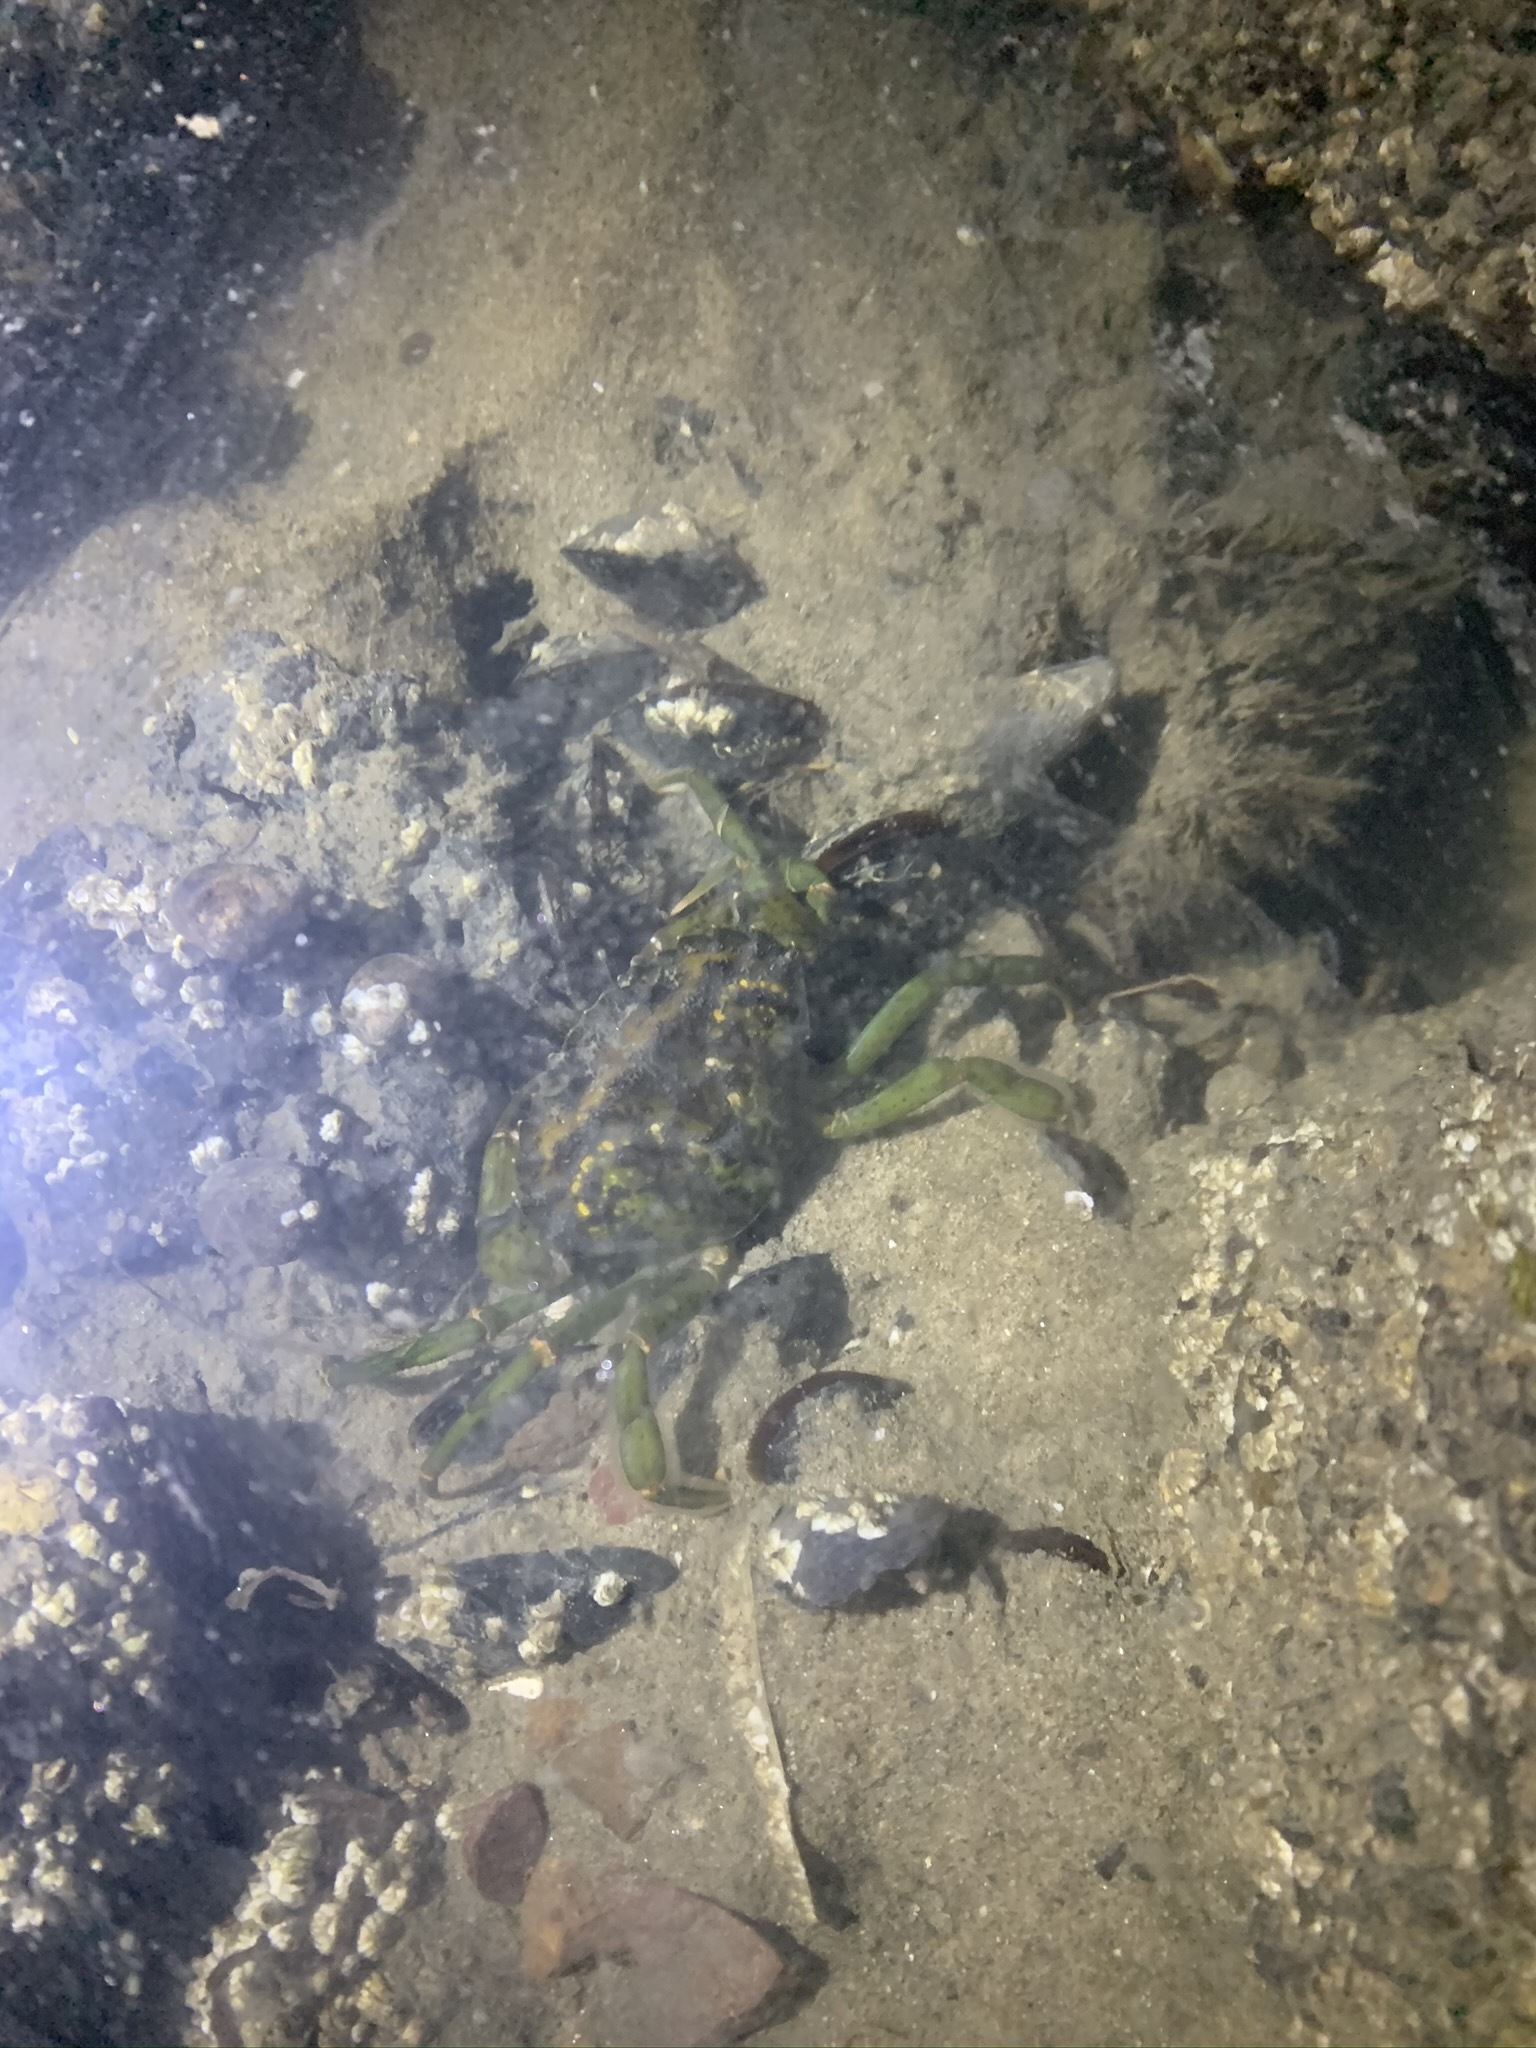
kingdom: Animalia
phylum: Arthropoda
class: Malacostraca
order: Decapoda
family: Carcinidae
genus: Carcinus
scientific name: Carcinus maenas
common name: European green crab
